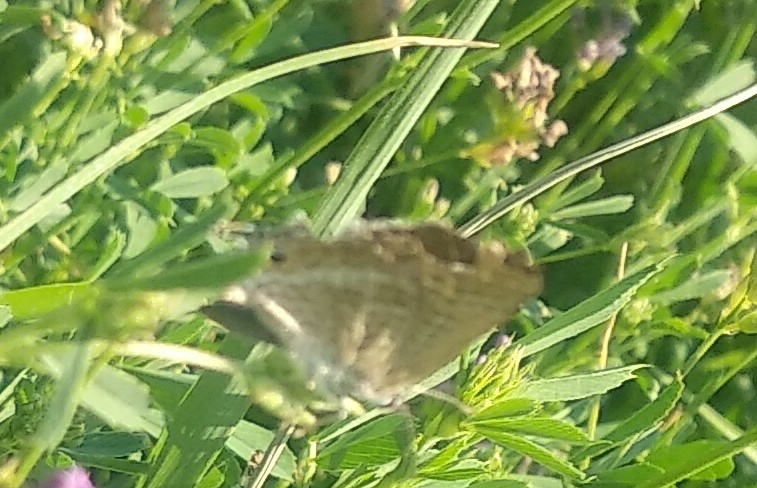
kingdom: Animalia
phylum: Arthropoda
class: Insecta
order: Lepidoptera
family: Lycaenidae
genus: Lampides
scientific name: Lampides boeticus
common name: Long-tailed blue
